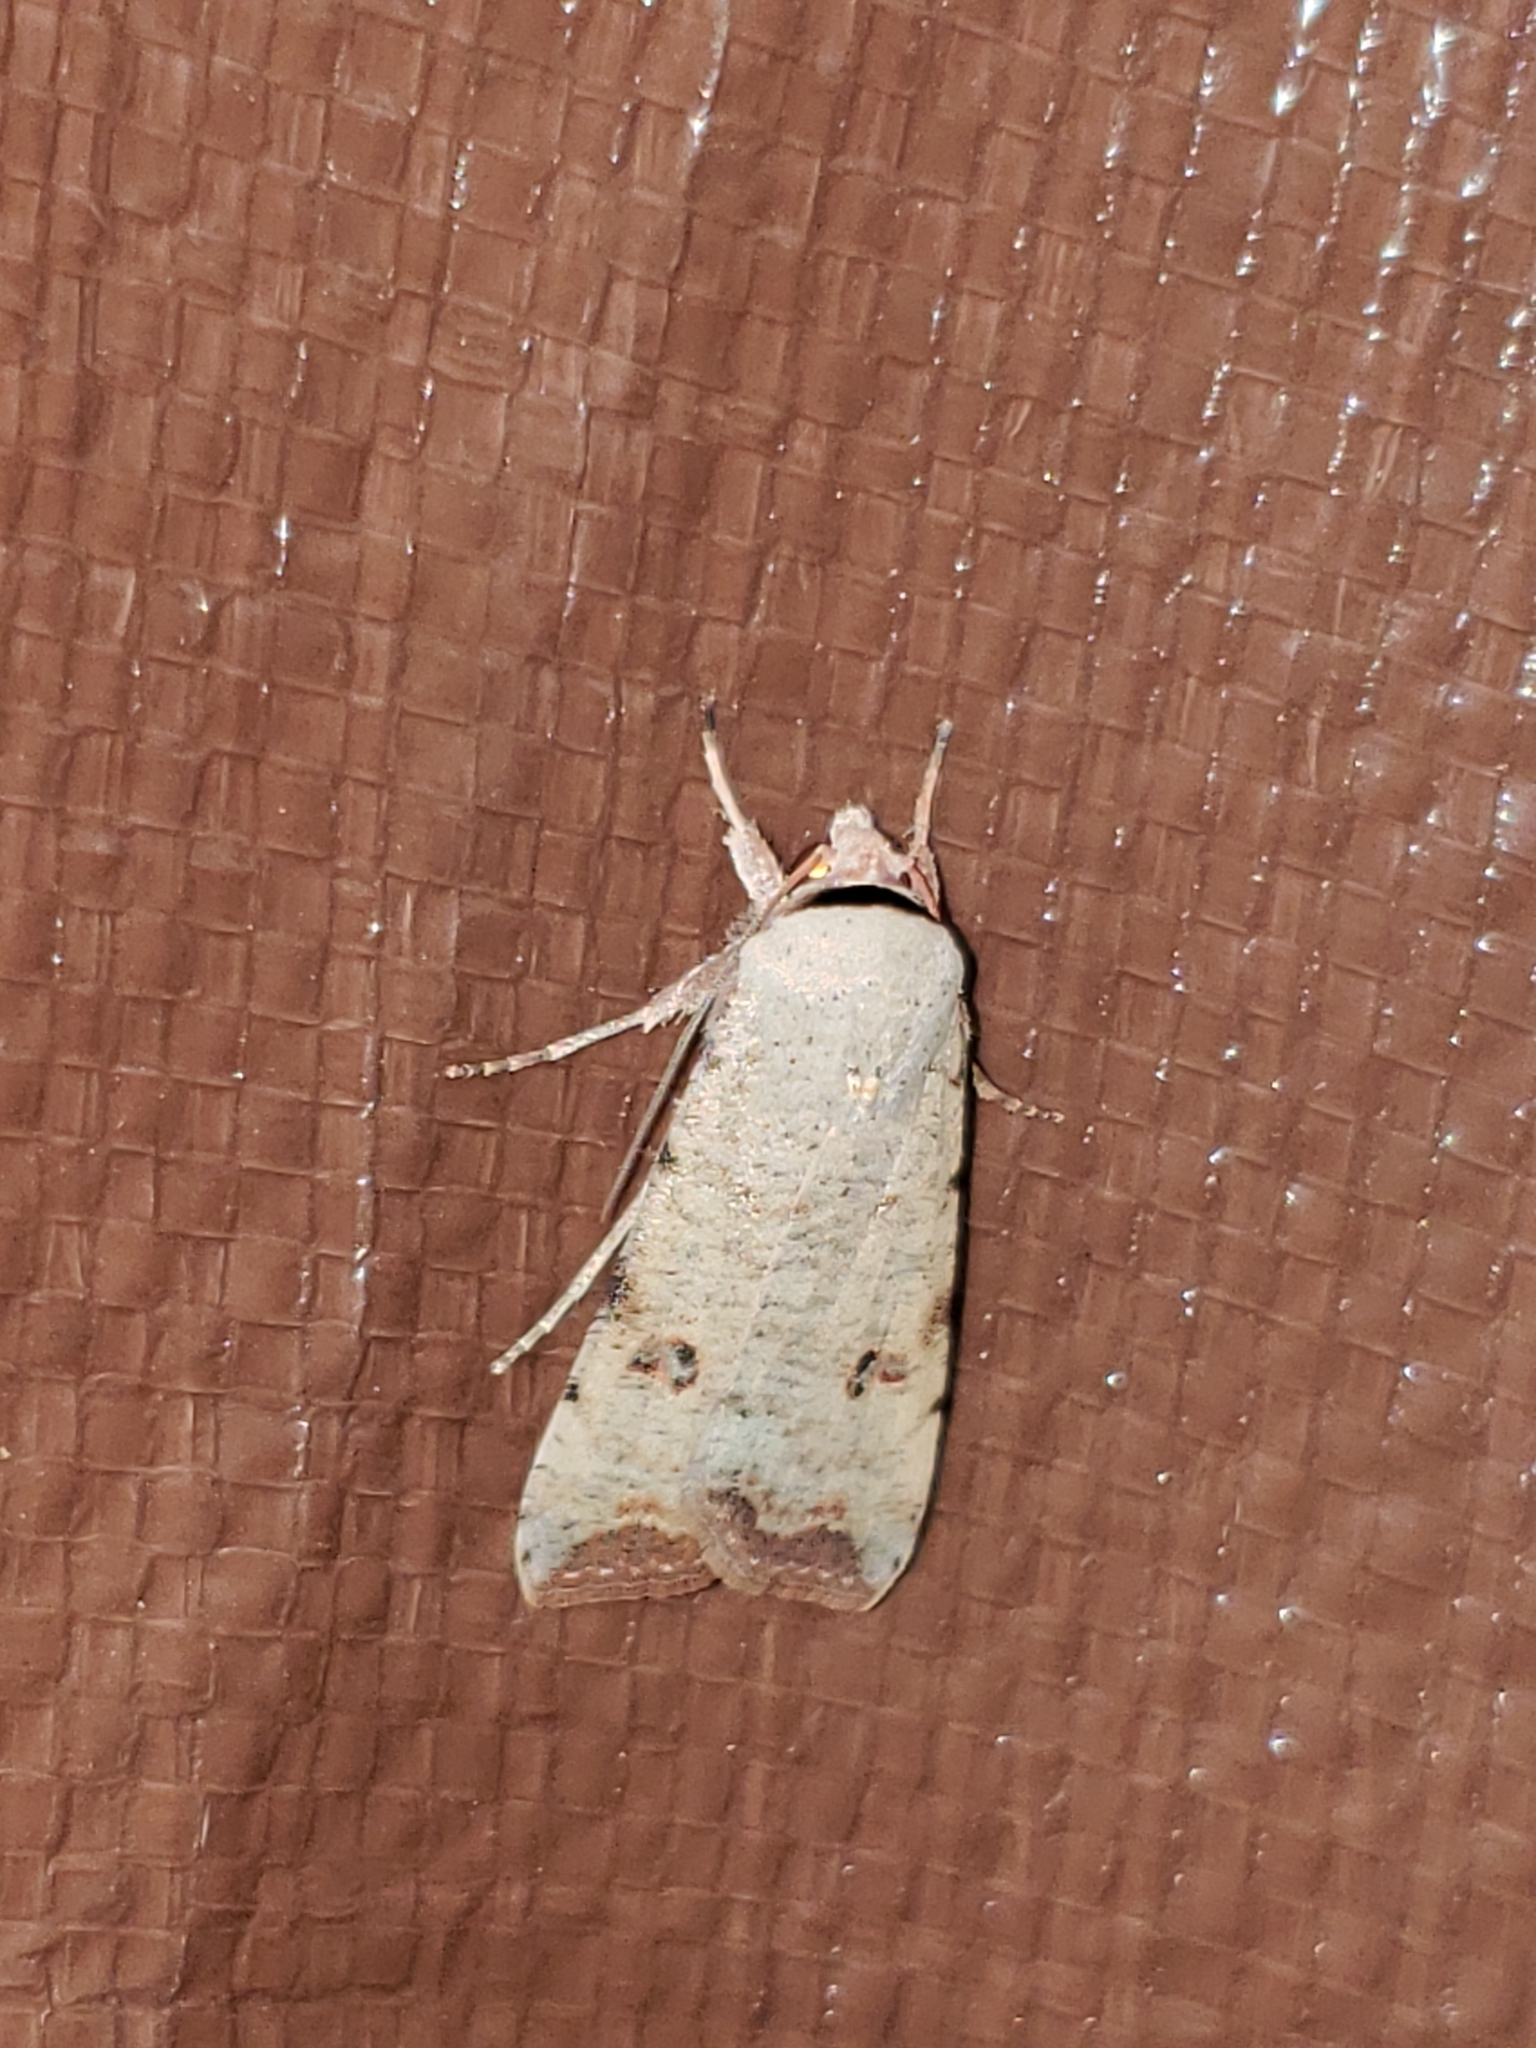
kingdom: Animalia
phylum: Arthropoda
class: Insecta
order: Lepidoptera
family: Noctuidae
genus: Anicla
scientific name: Anicla infecta
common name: Green cutworm
